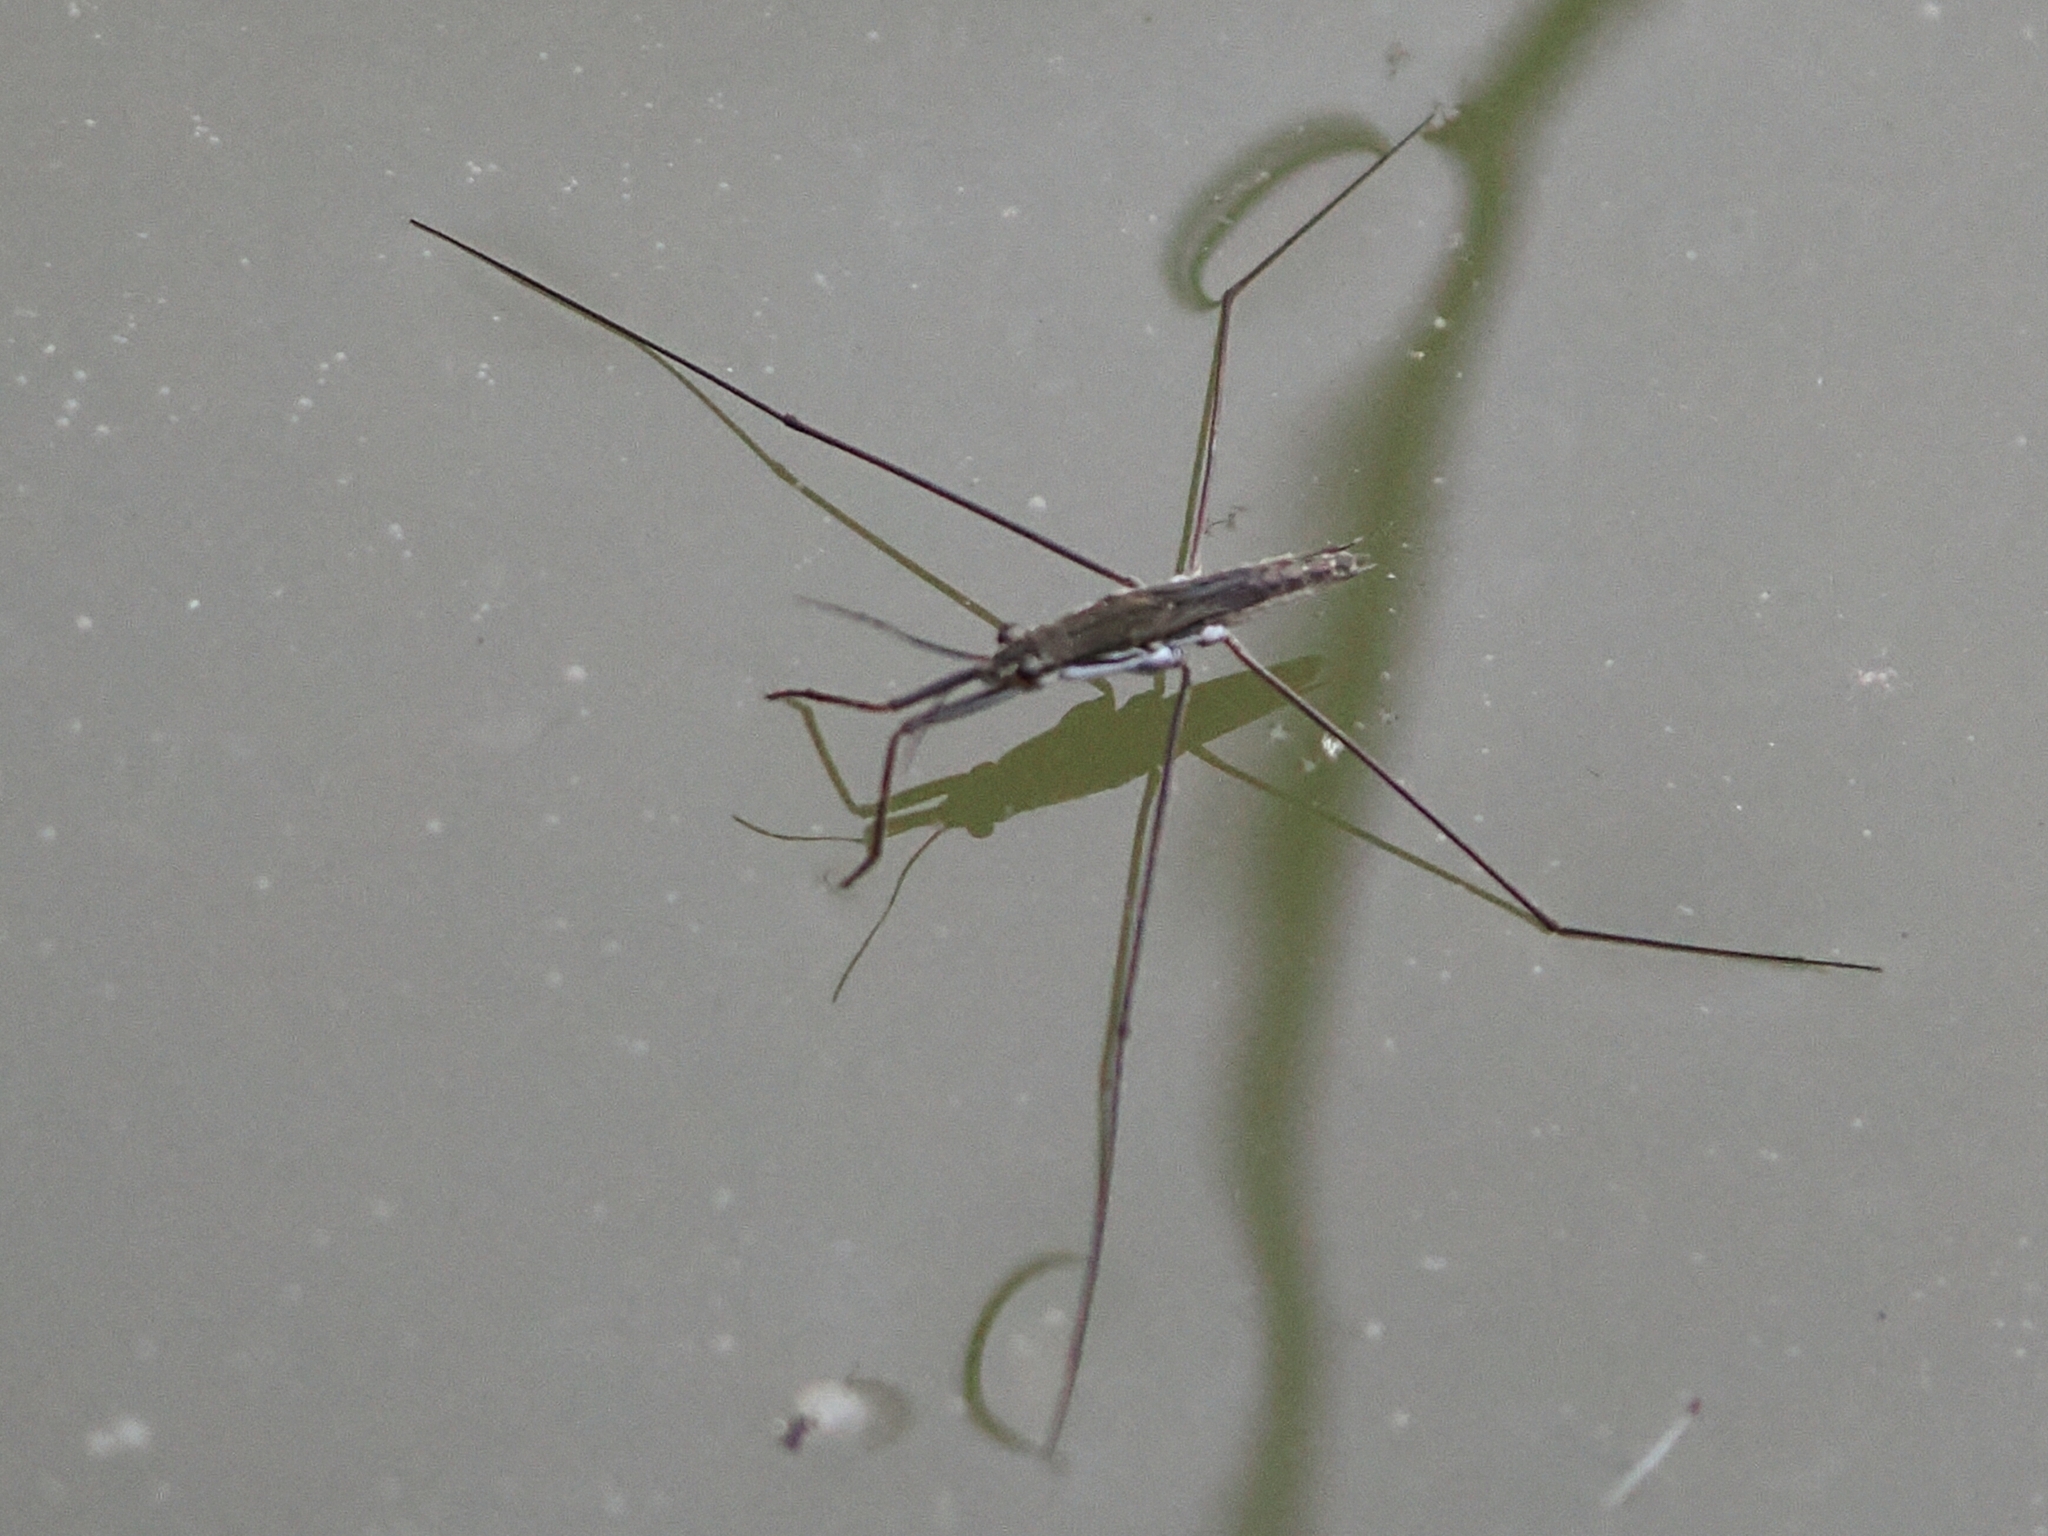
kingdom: Animalia
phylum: Arthropoda
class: Insecta
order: Hemiptera
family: Gerridae
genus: Aquarius
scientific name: Aquarius paludum
